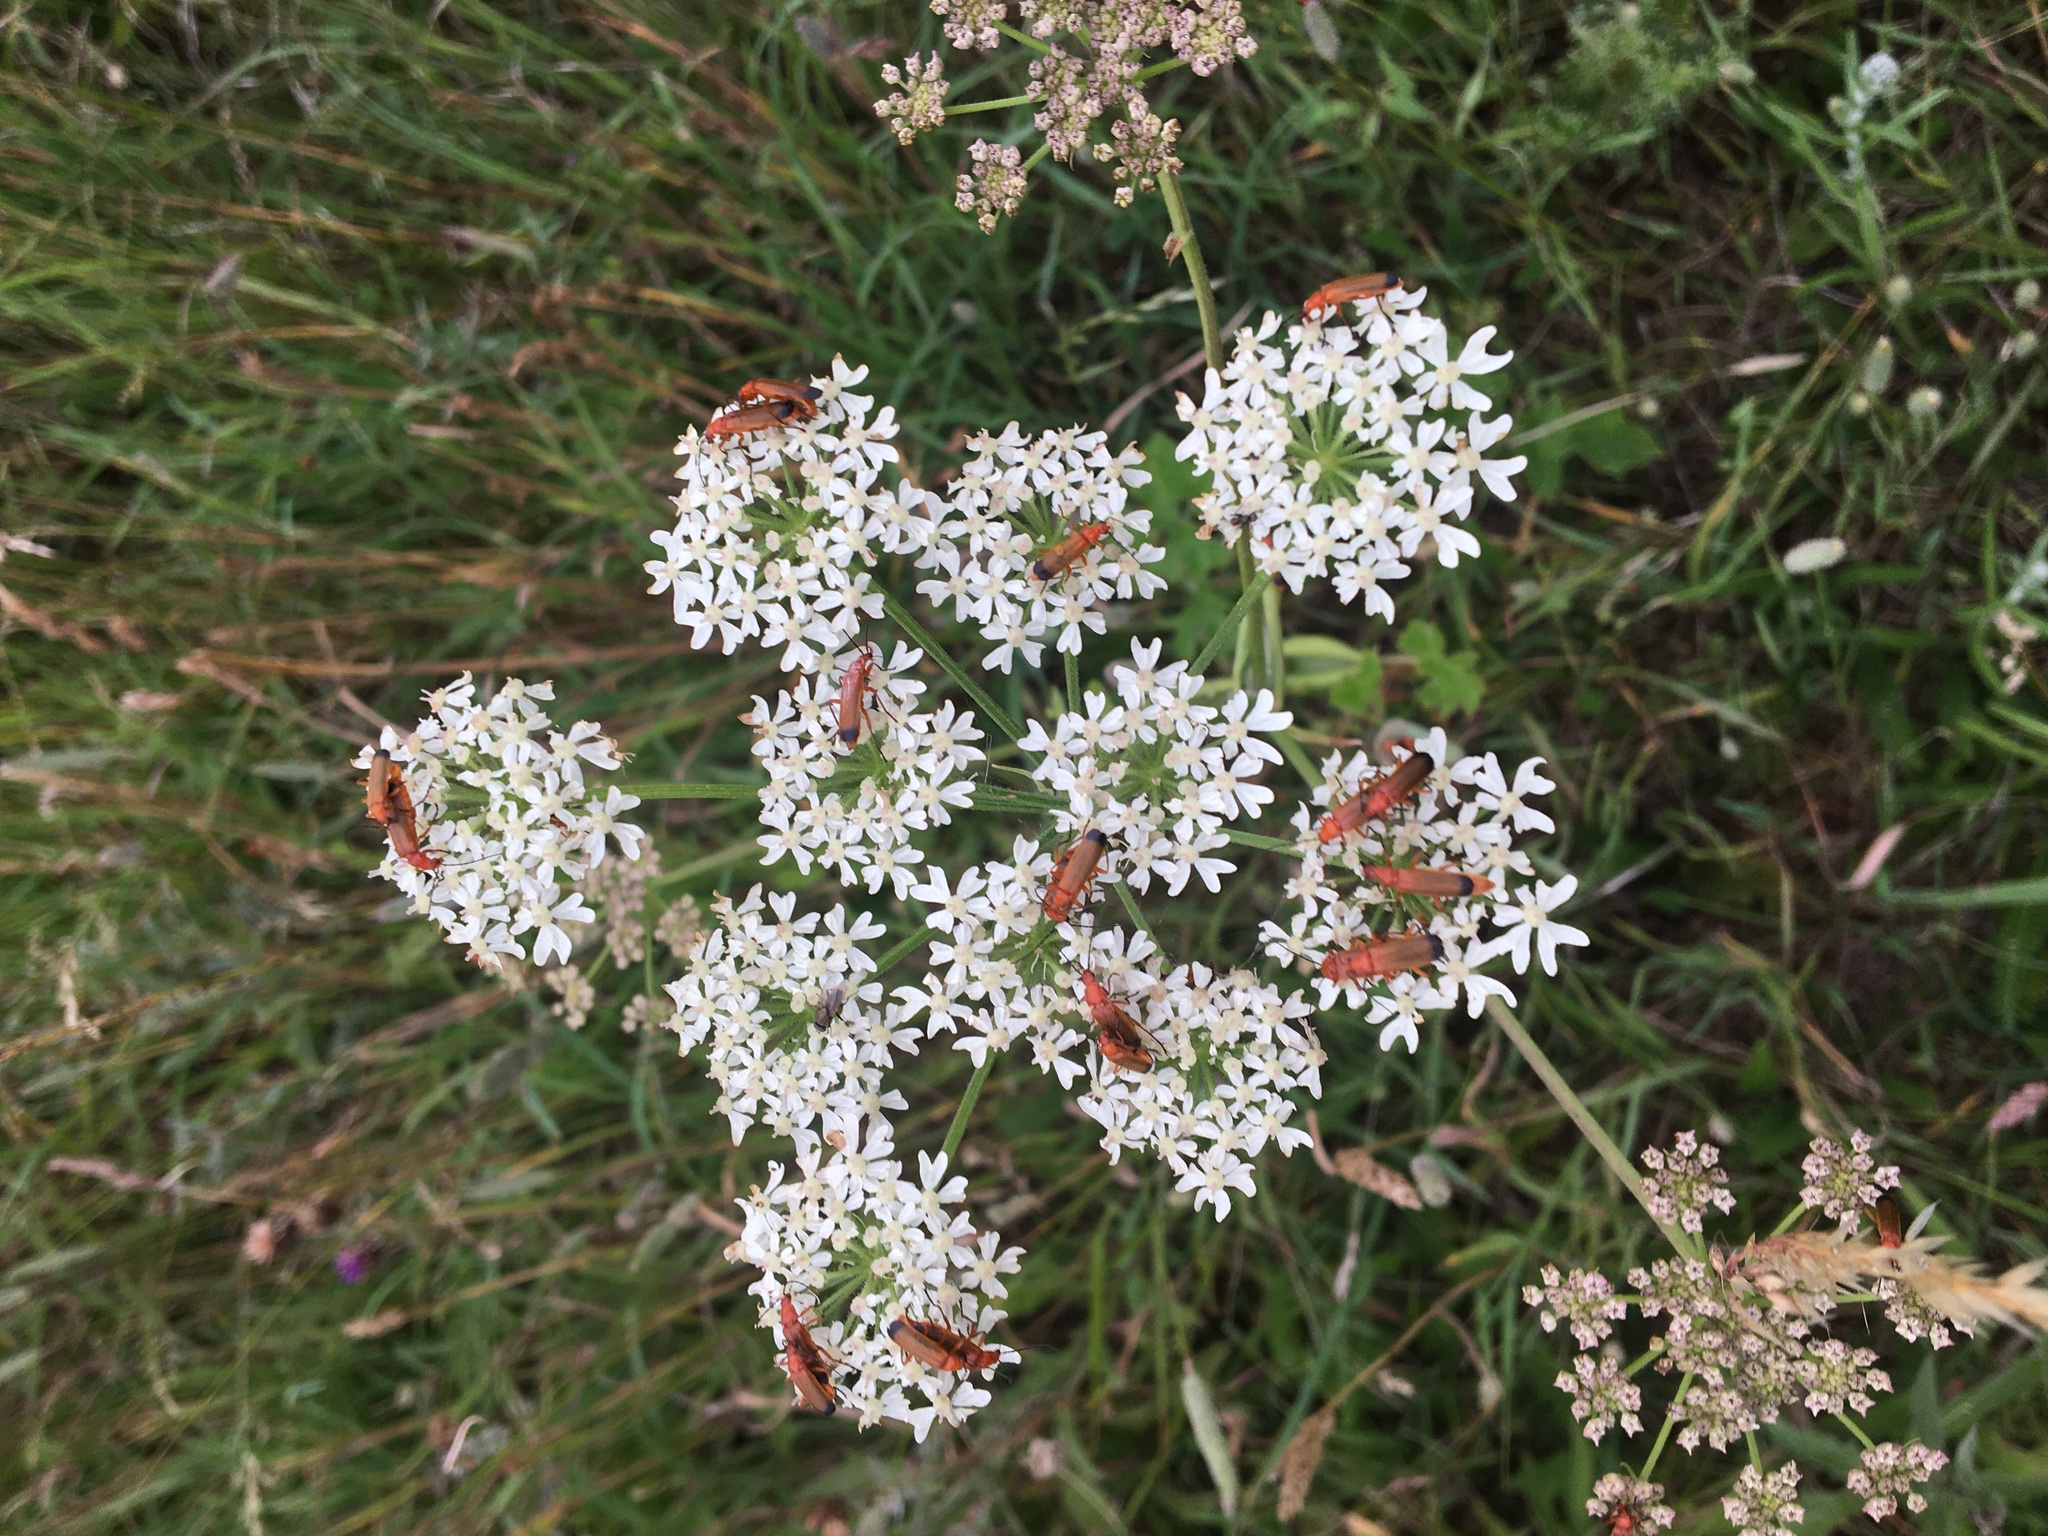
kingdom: Animalia
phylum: Arthropoda
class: Insecta
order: Coleoptera
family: Cantharidae
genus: Rhagonycha
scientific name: Rhagonycha fulva
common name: Common red soldier beetle
